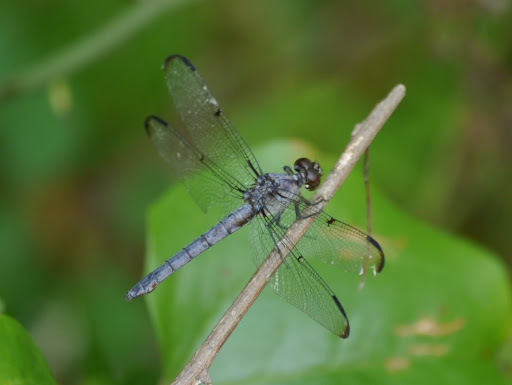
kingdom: Animalia
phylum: Arthropoda
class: Insecta
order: Odonata
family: Libellulidae
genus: Libellula
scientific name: Libellula incesta
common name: Slaty skimmer
